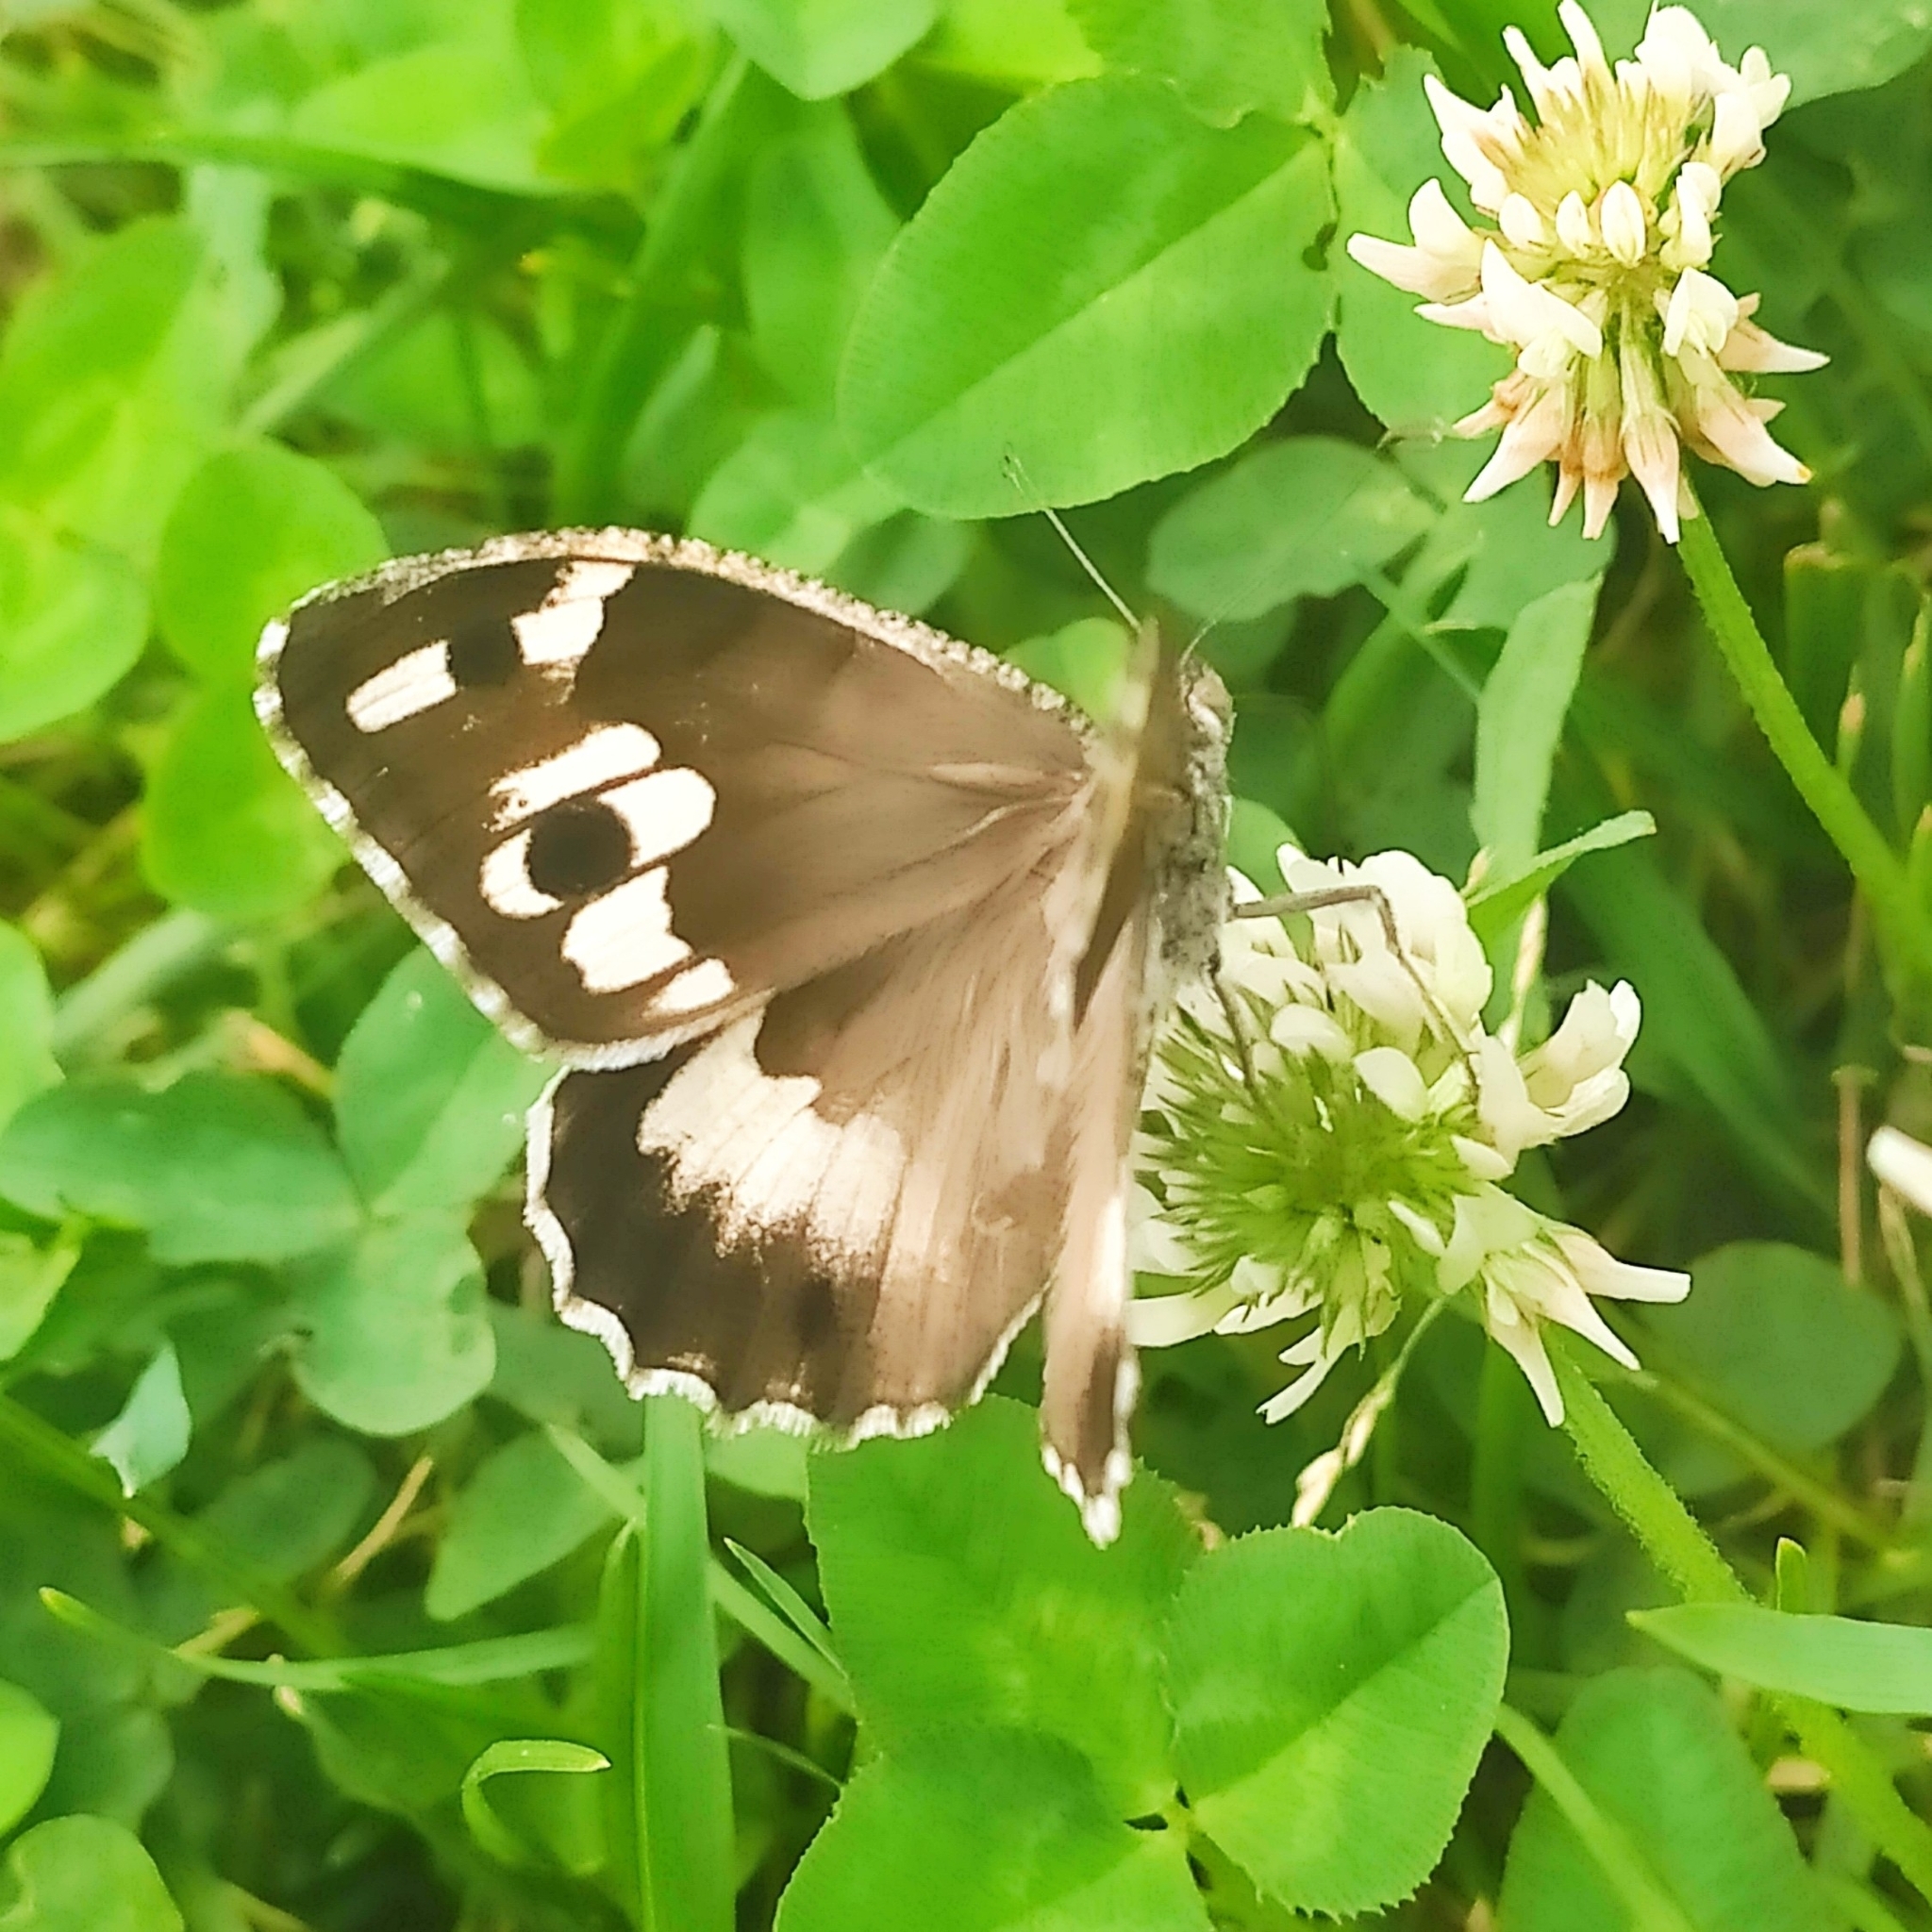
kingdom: Animalia
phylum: Arthropoda
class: Insecta
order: Lepidoptera
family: Nymphalidae
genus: Satyrus
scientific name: Satyrus Chazara persephone
